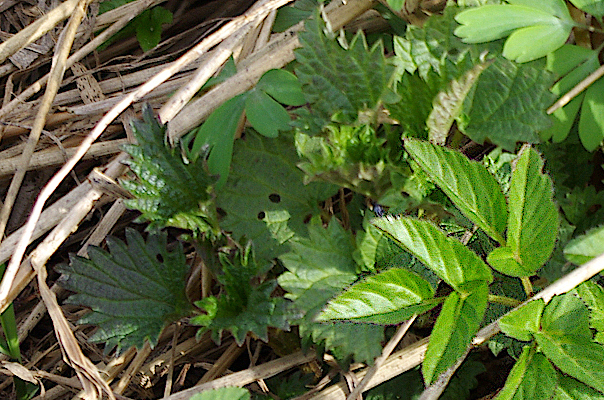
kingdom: Plantae
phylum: Tracheophyta
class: Magnoliopsida
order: Rosales
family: Urticaceae
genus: Urtica
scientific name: Urtica dioica
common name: Common nettle
